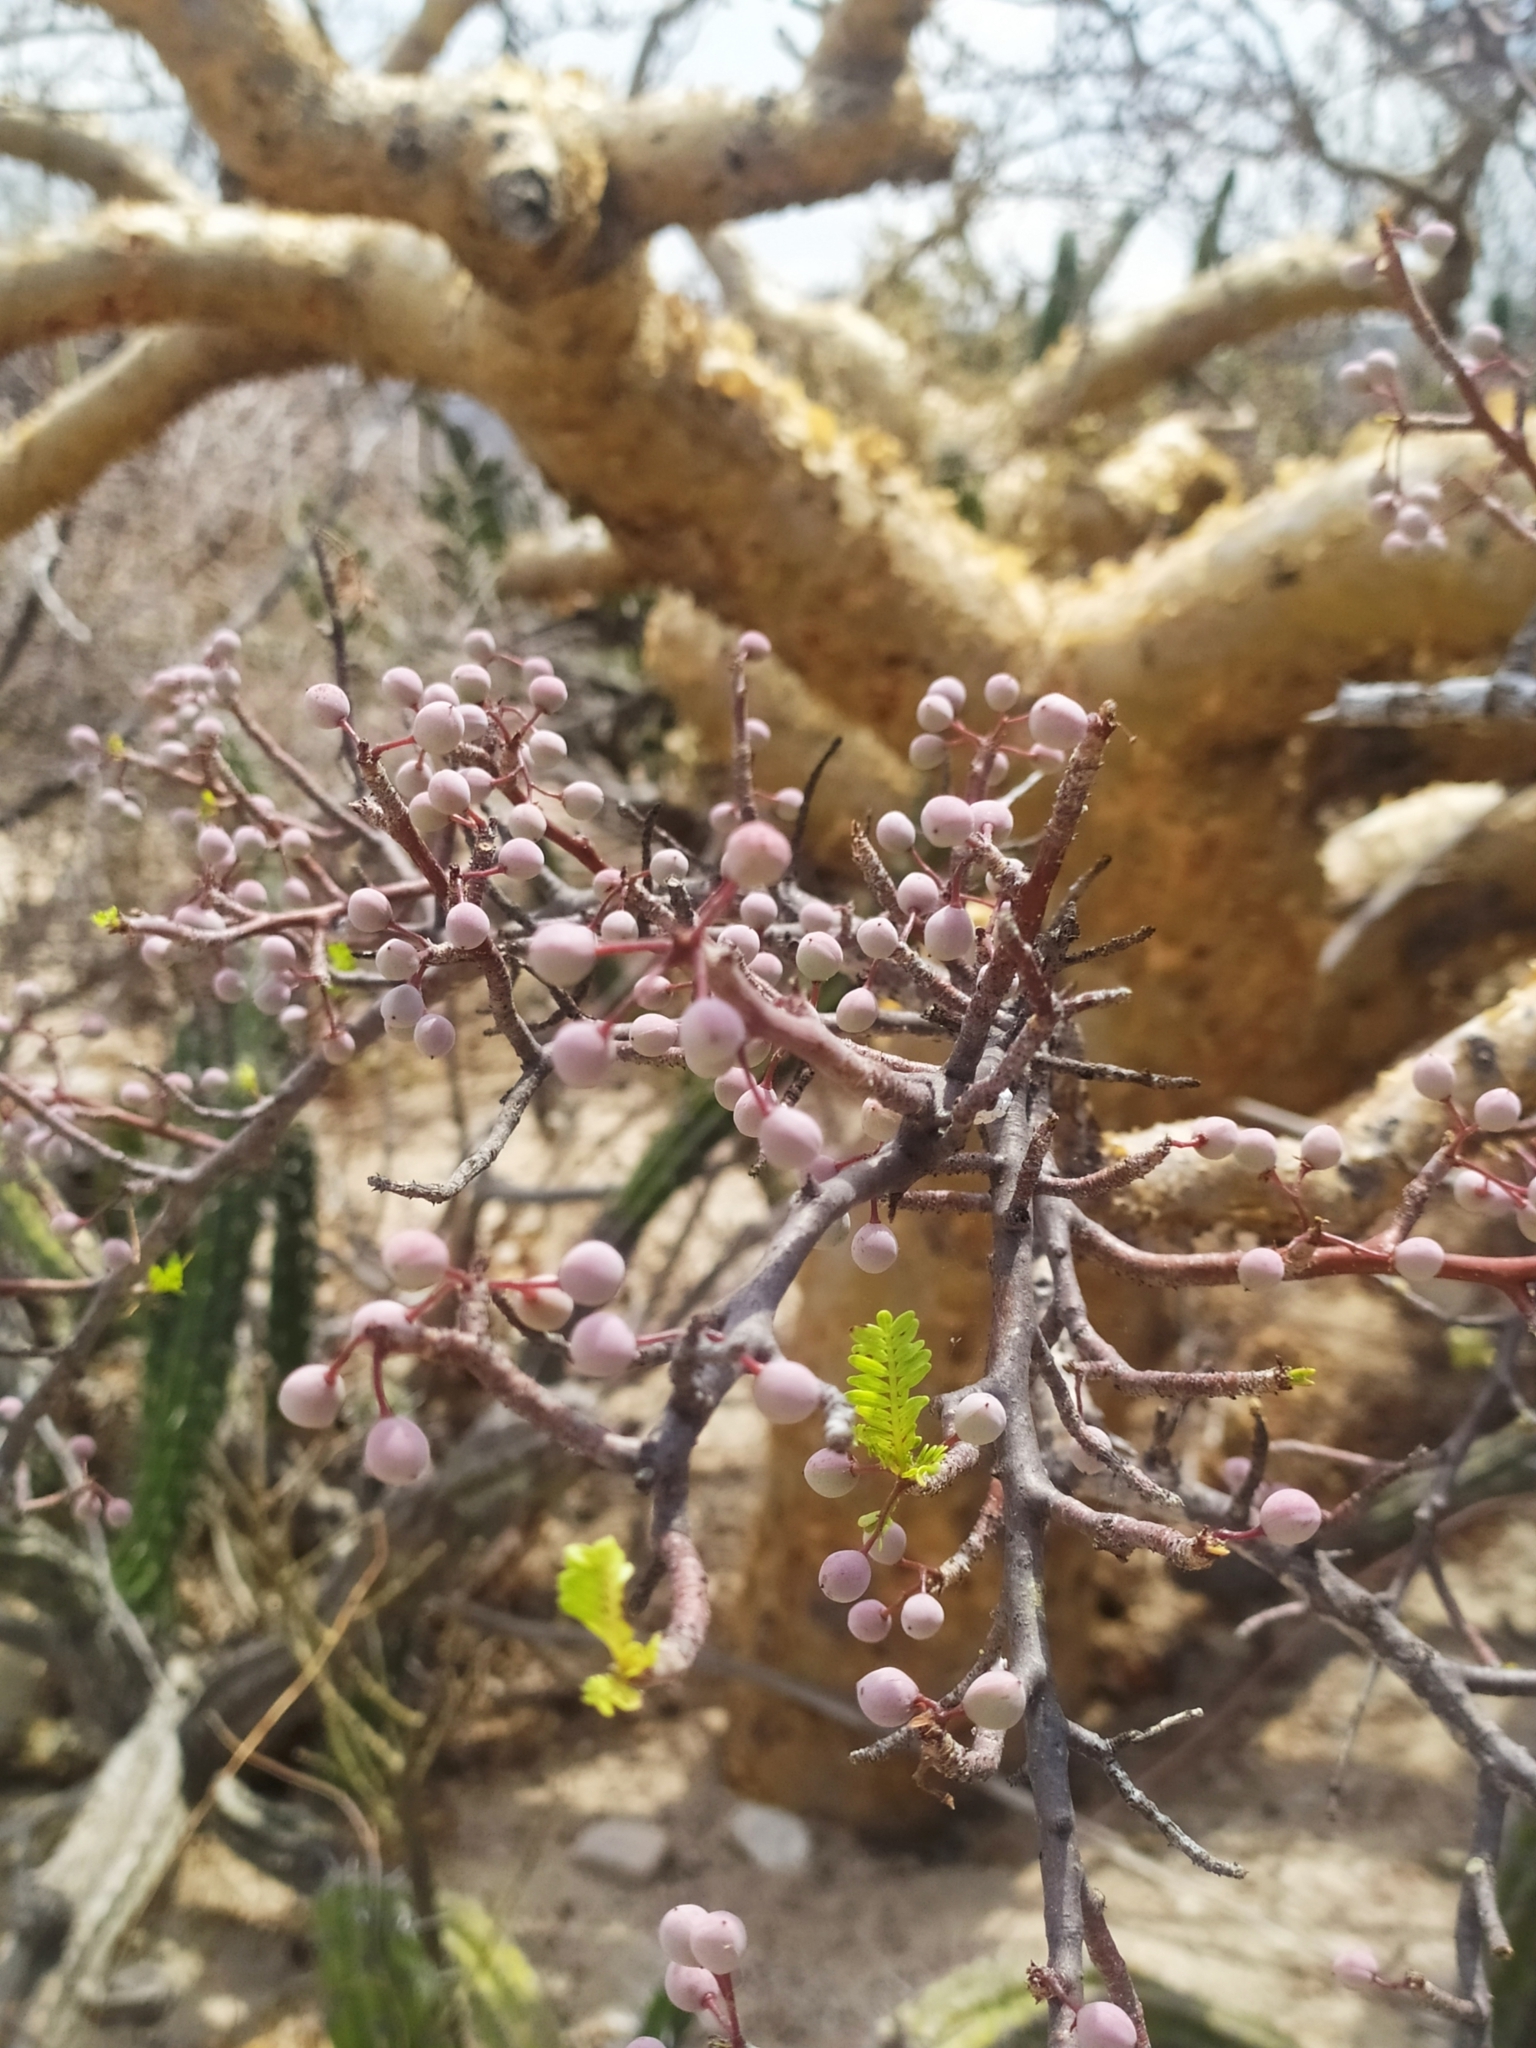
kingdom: Plantae
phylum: Tracheophyta
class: Magnoliopsida
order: Sapindales
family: Burseraceae
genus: Bursera
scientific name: Bursera microphylla
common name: Elephant tree
